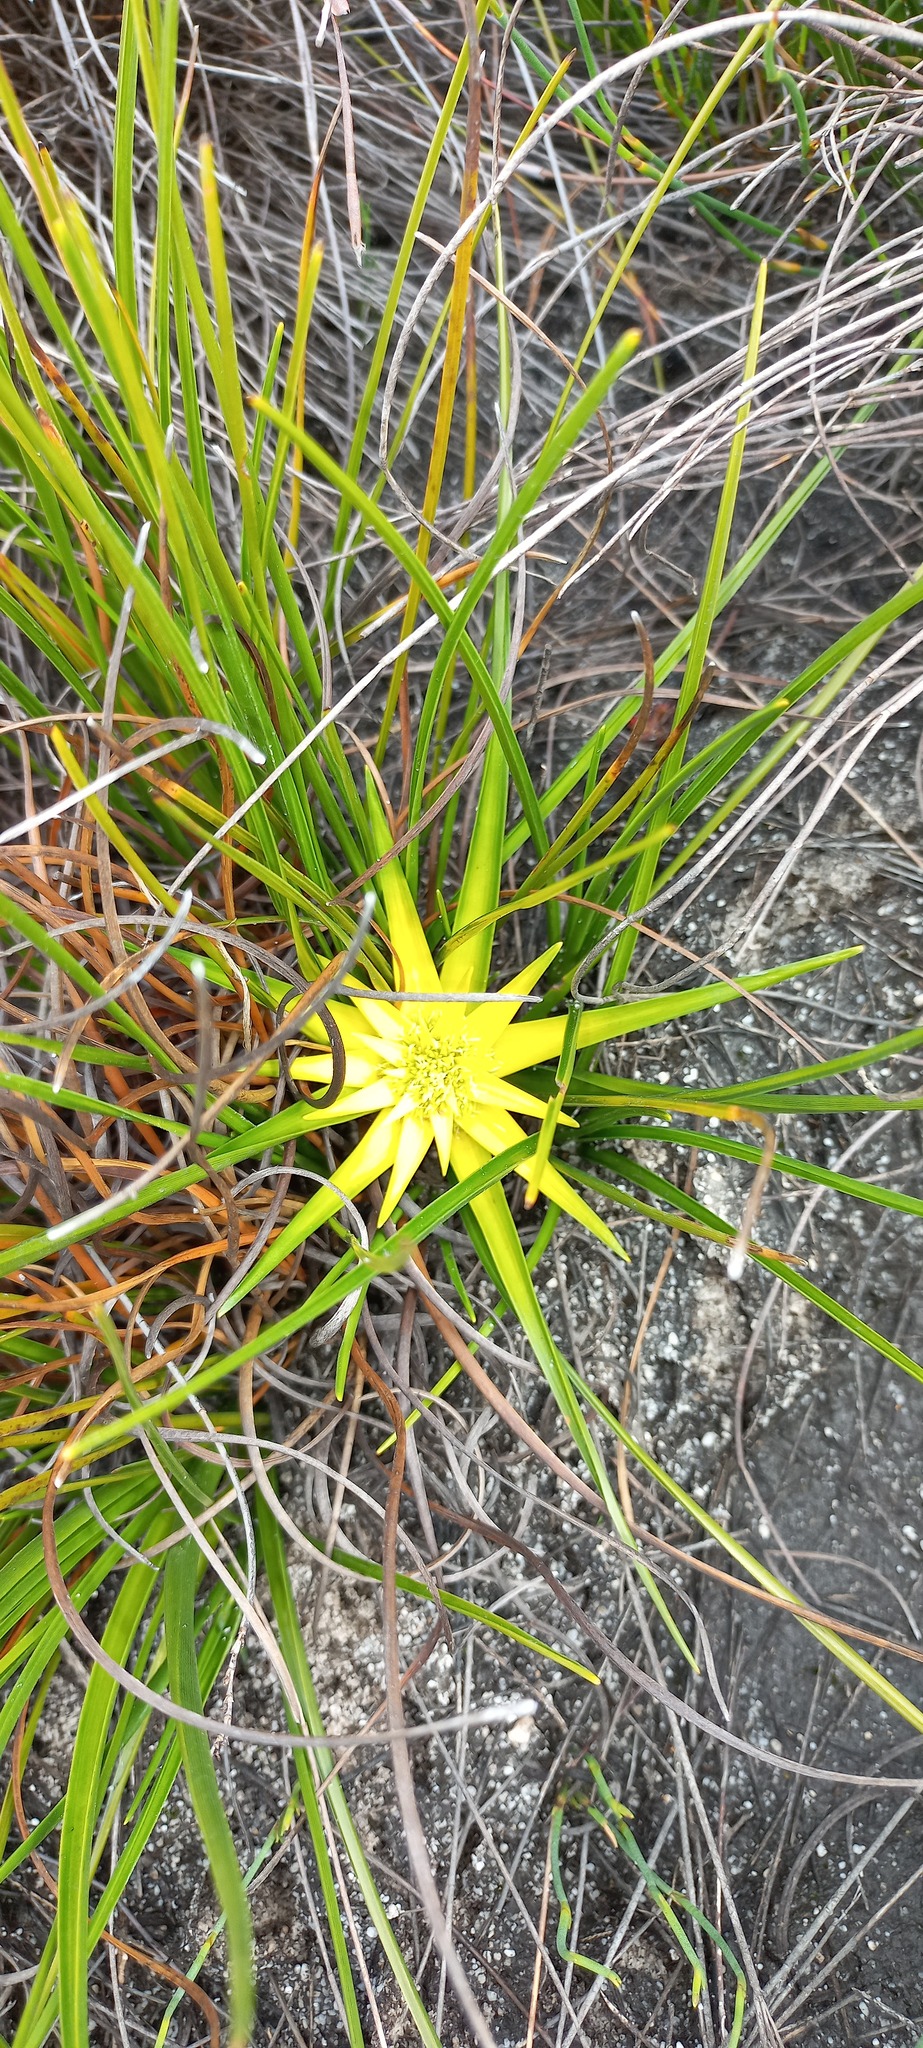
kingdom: Plantae
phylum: Tracheophyta
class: Liliopsida
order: Poales
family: Cyperaceae
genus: Ficinia
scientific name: Ficinia radiata
